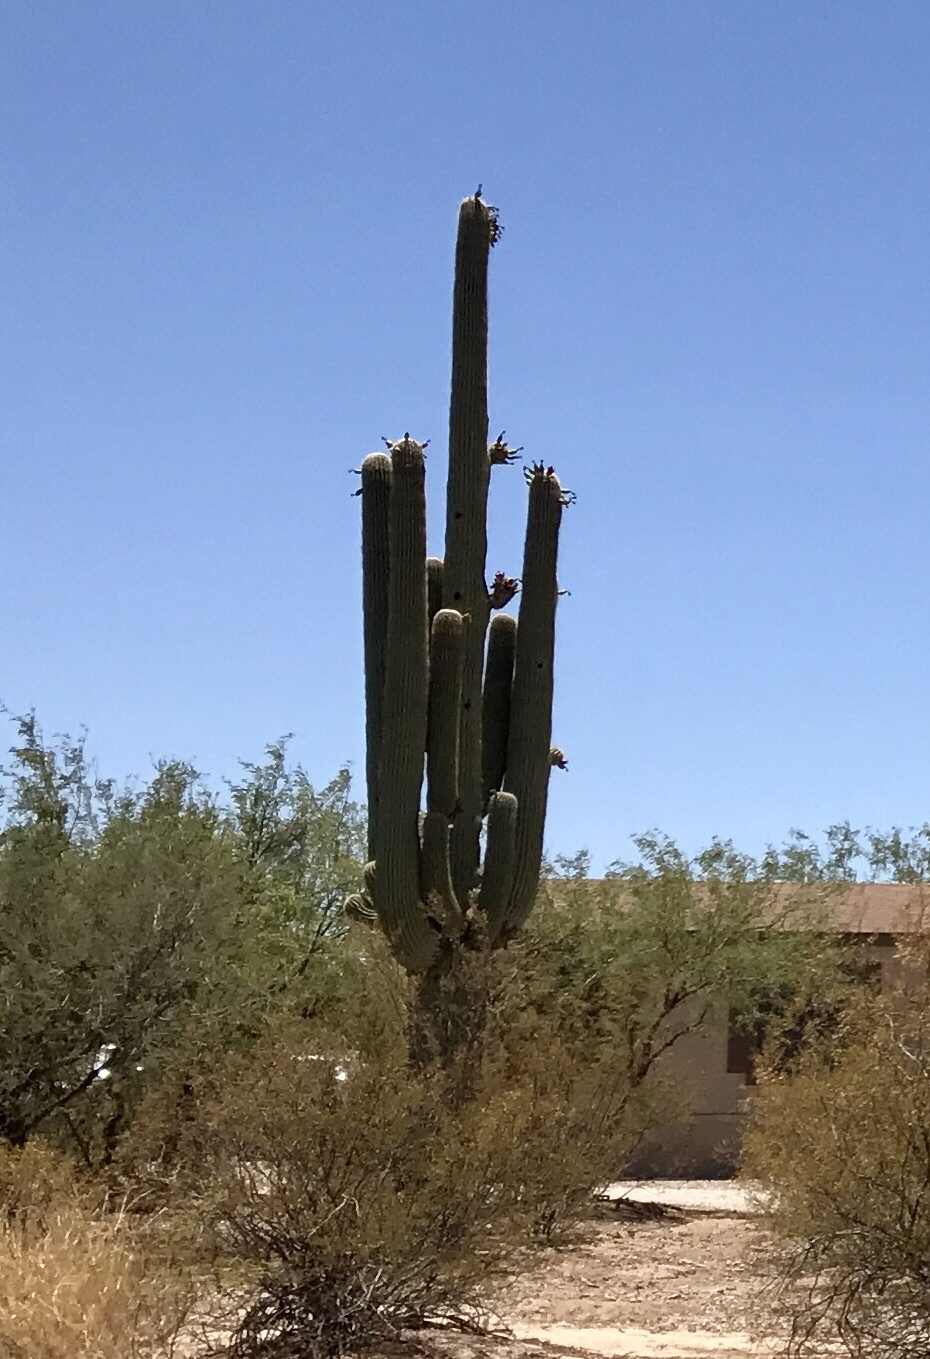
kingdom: Plantae
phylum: Tracheophyta
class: Magnoliopsida
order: Caryophyllales
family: Cactaceae
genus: Carnegiea
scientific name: Carnegiea gigantea
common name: Saguaro
